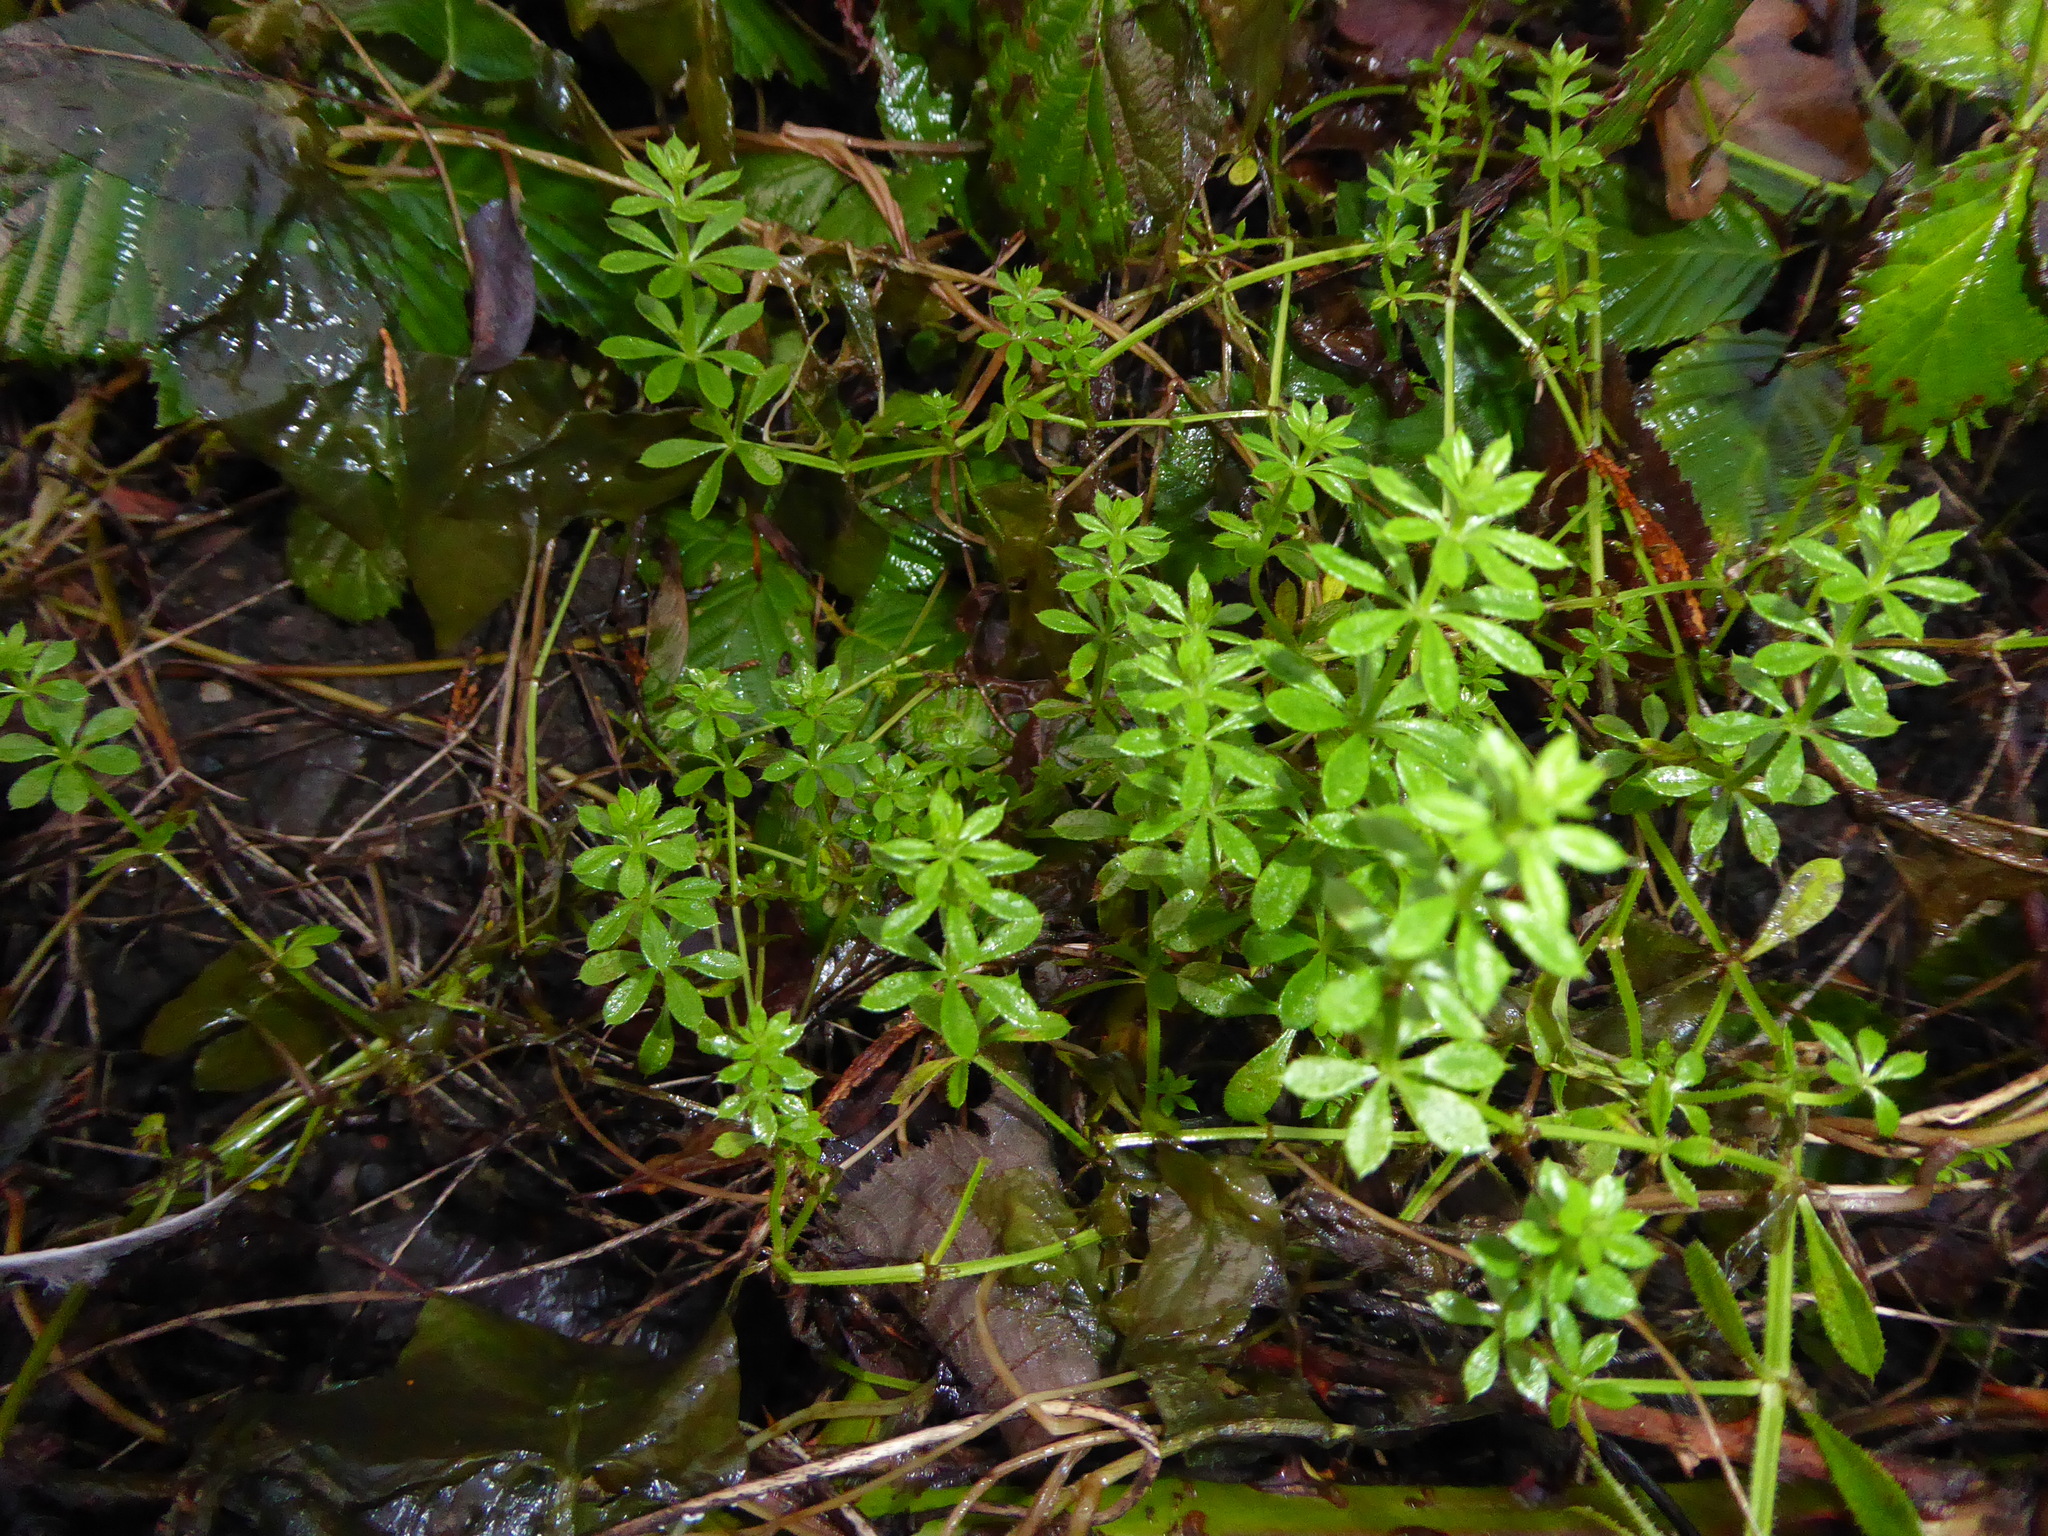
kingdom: Plantae
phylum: Tracheophyta
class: Magnoliopsida
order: Gentianales
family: Rubiaceae
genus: Galium
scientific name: Galium aparine
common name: Cleavers
